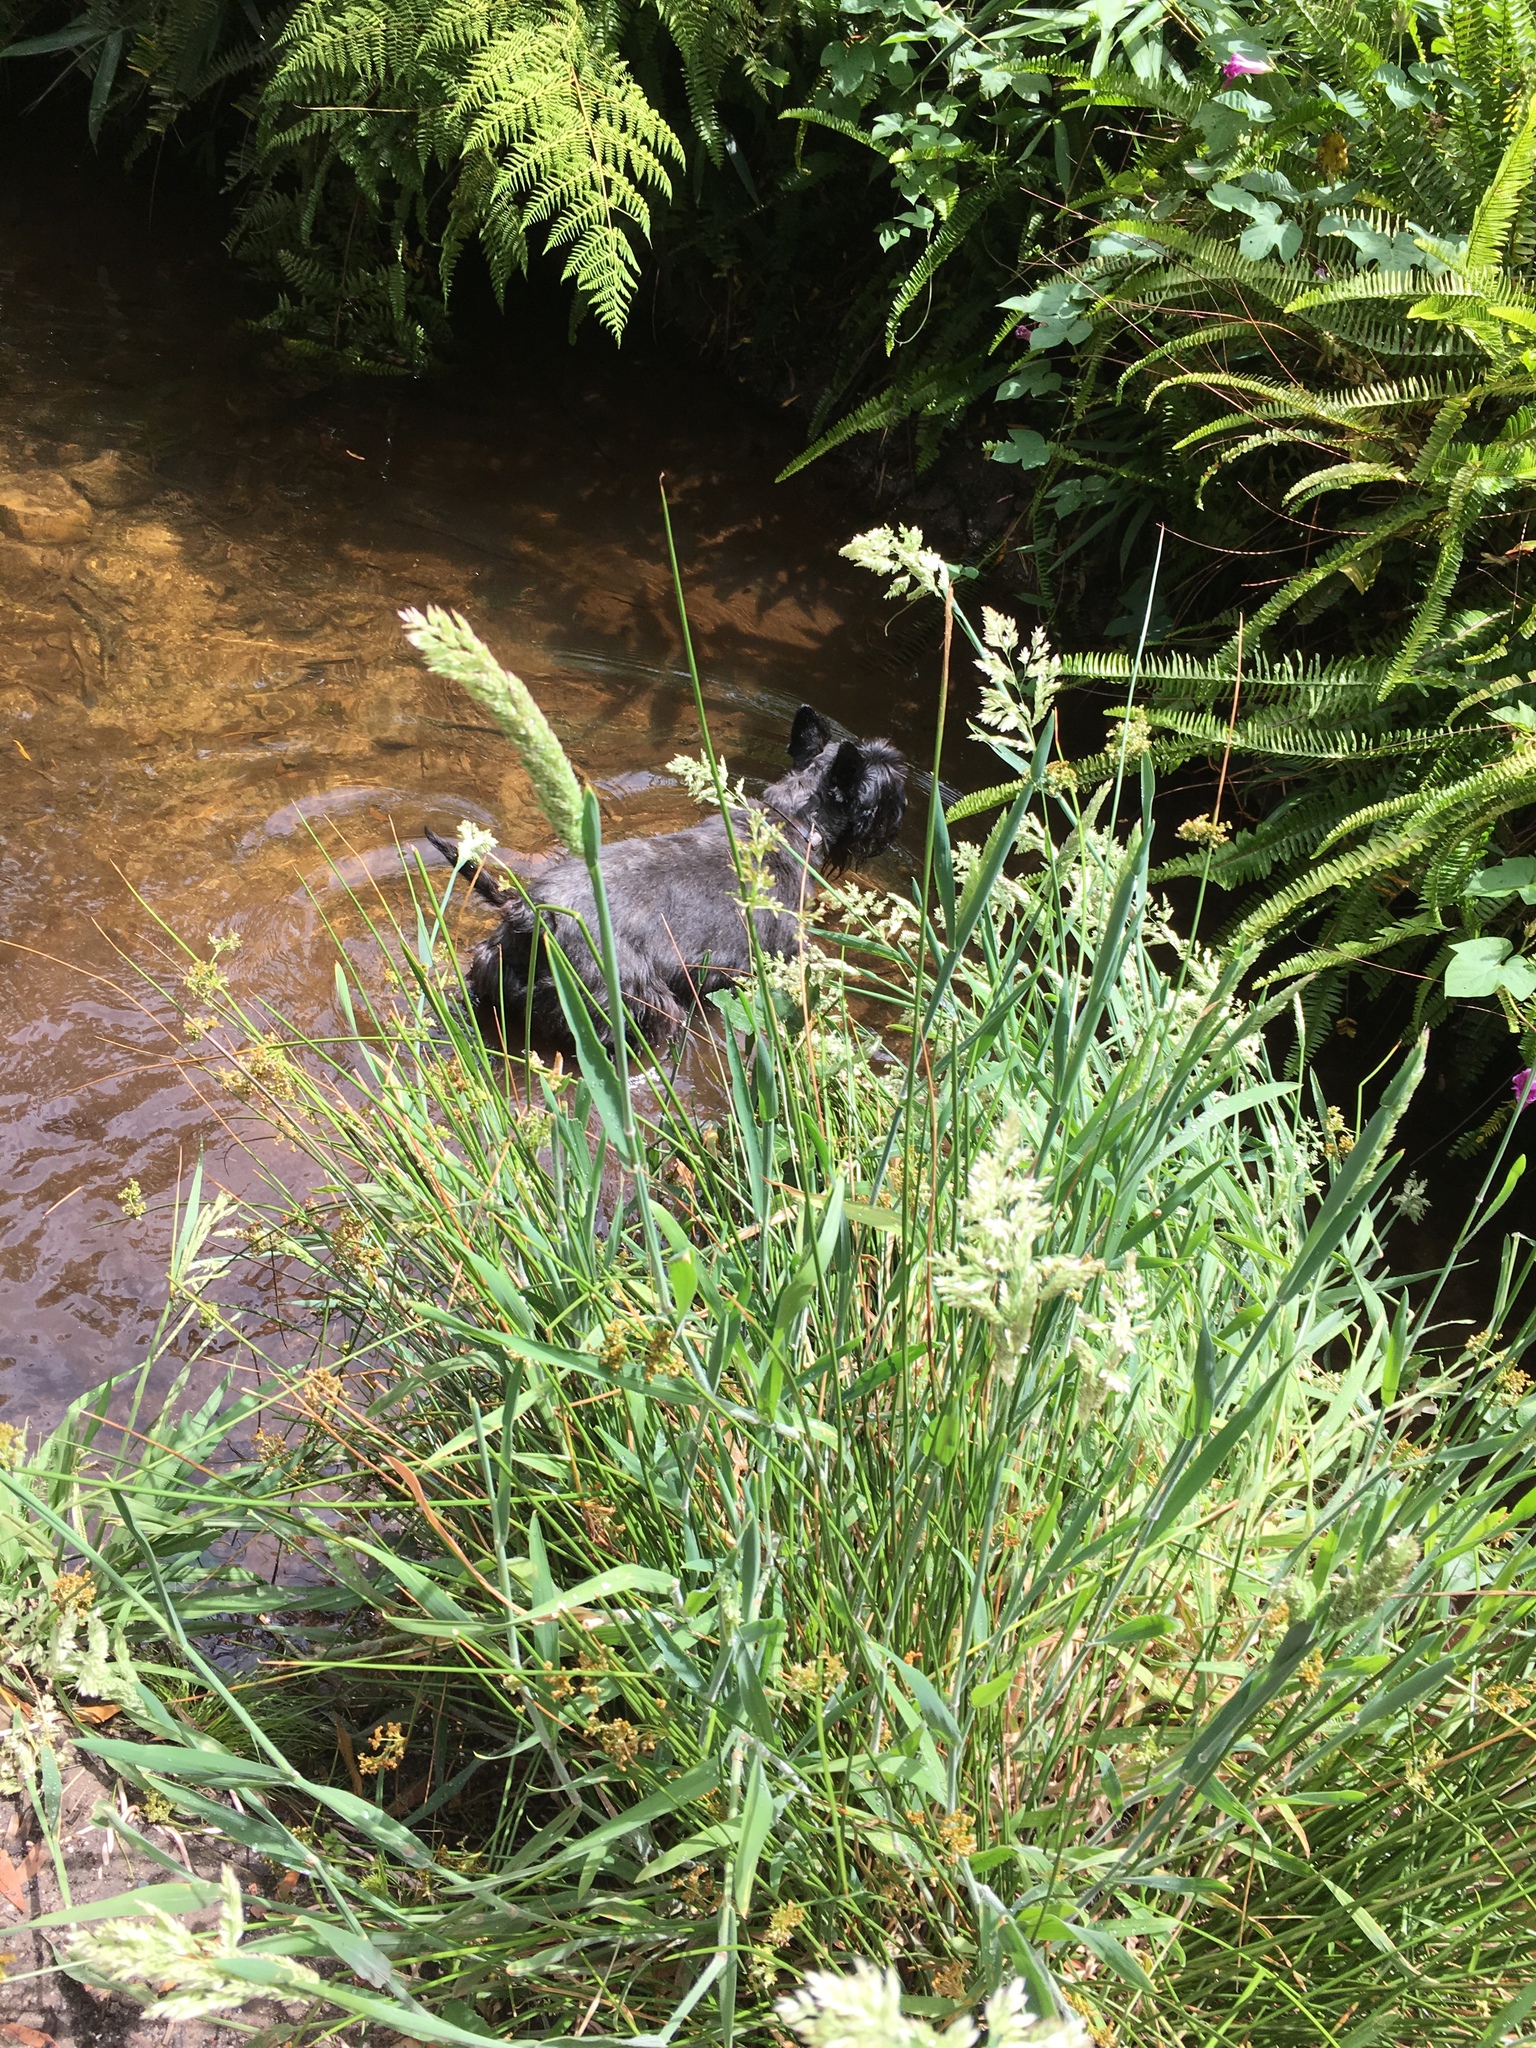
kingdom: Plantae
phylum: Tracheophyta
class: Liliopsida
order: Poales
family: Poaceae
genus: Holcus
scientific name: Holcus lanatus
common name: Yorkshire-fog
